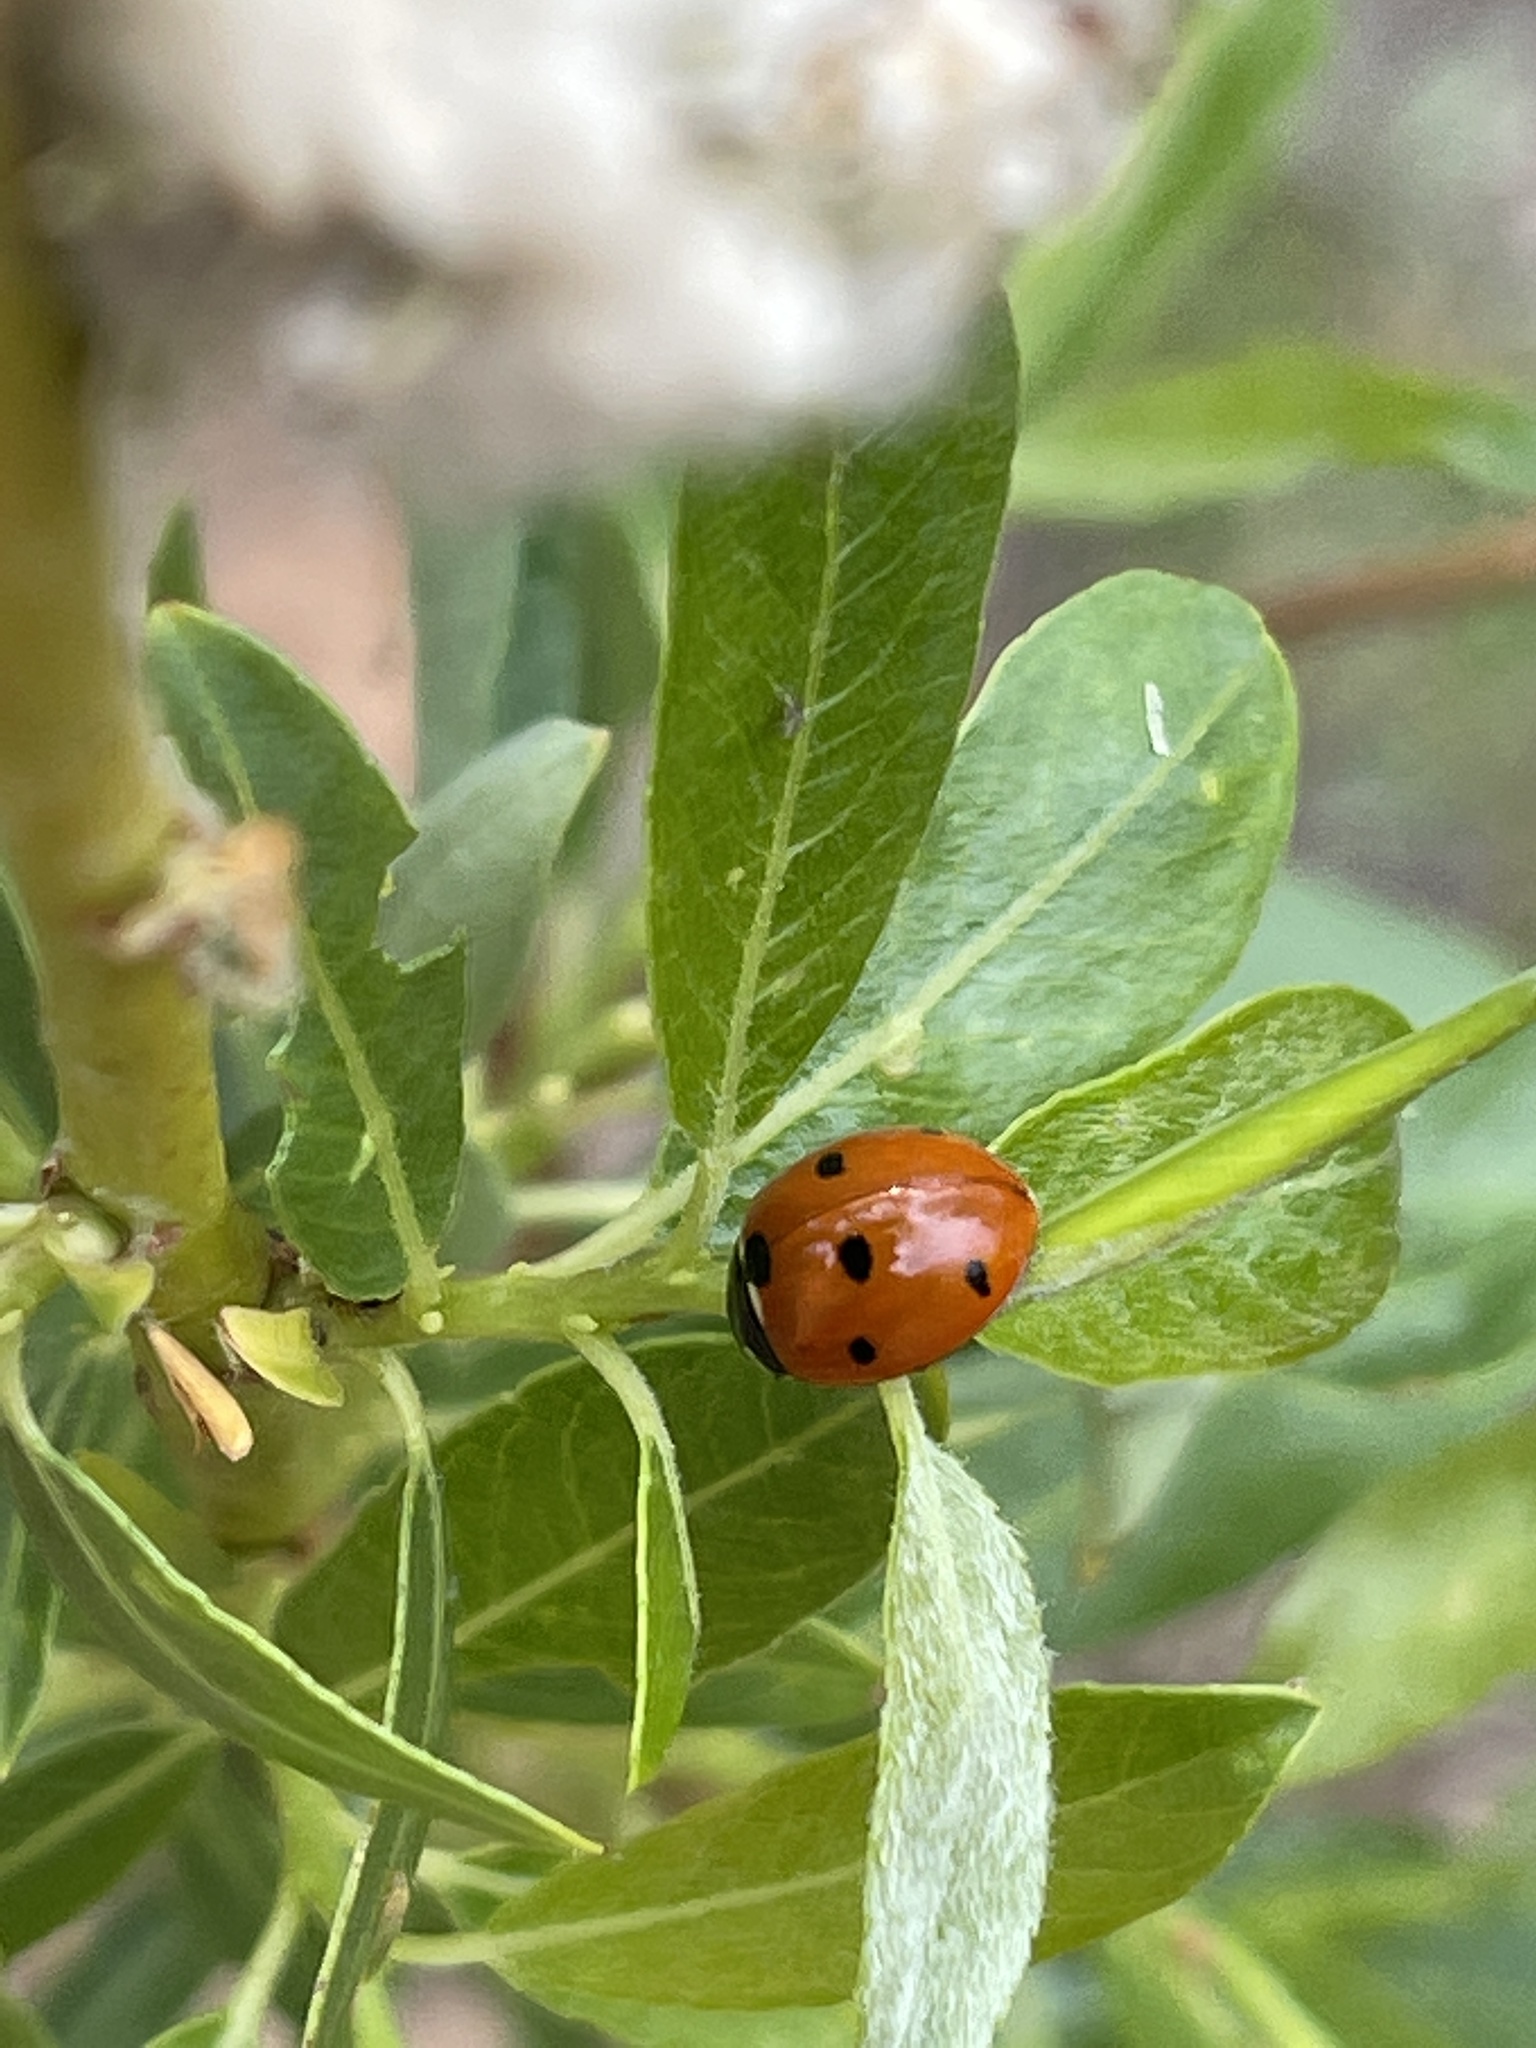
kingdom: Animalia
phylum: Arthropoda
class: Insecta
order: Coleoptera
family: Coccinellidae
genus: Coccinella
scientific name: Coccinella septempunctata
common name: Sevenspotted lady beetle
